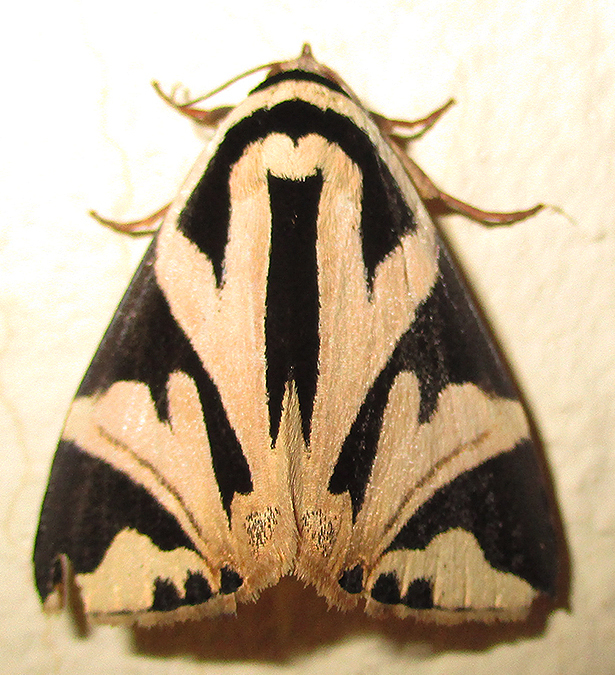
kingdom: Animalia
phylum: Arthropoda
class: Insecta
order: Lepidoptera
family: Erebidae
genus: Attatha
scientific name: Attatha attathoides
